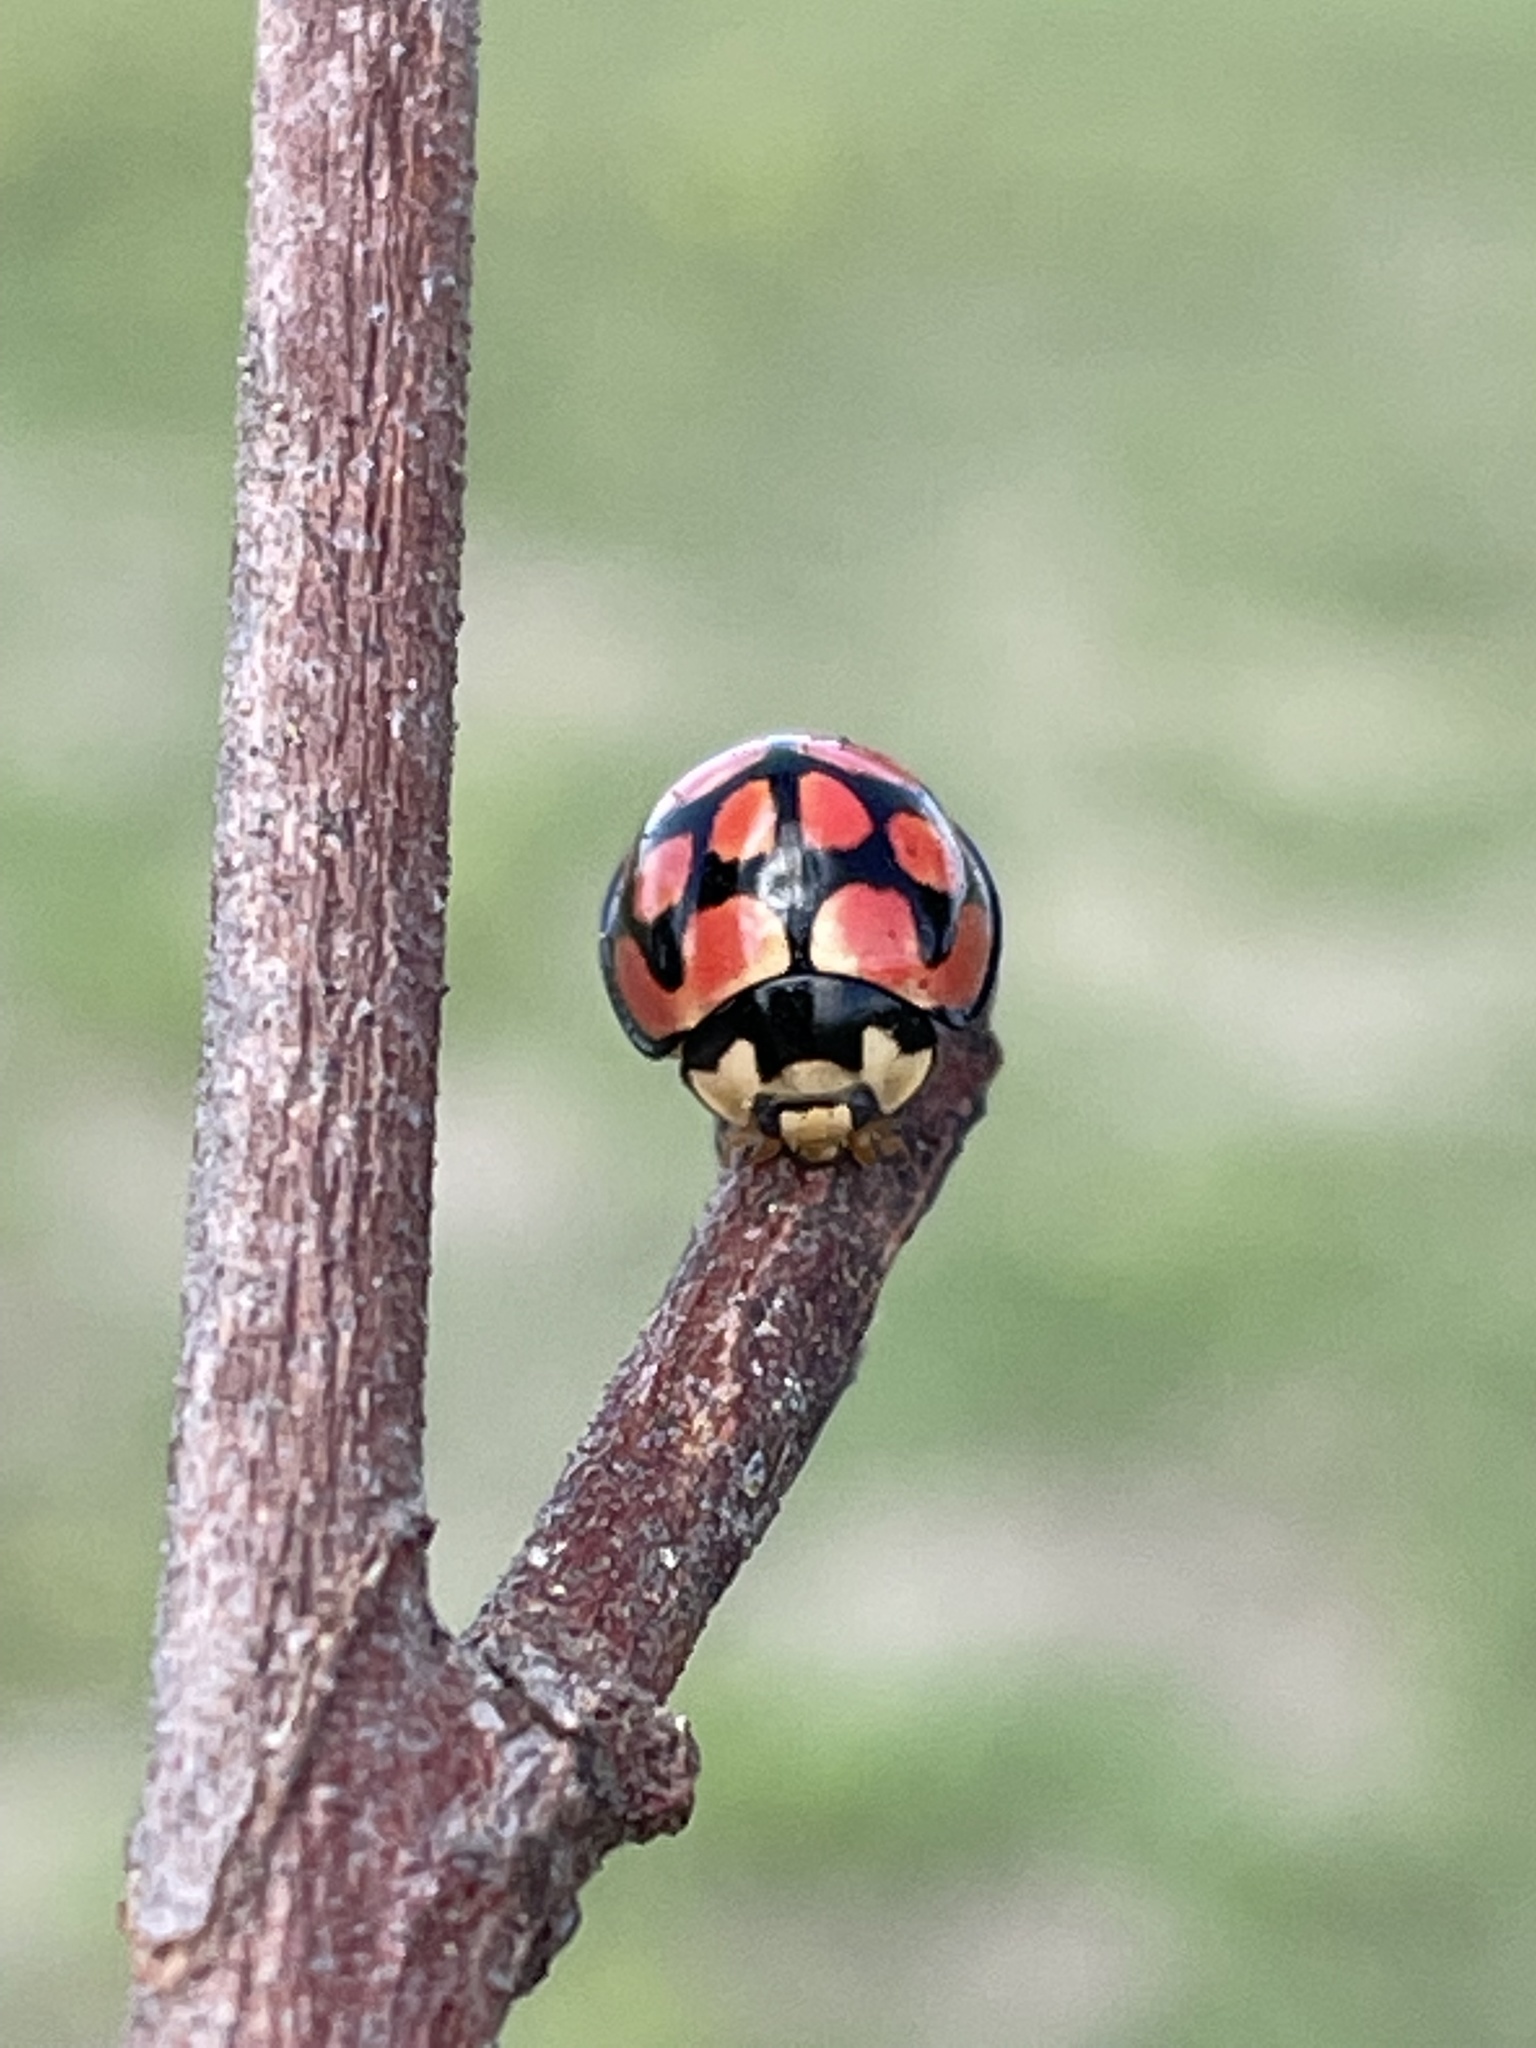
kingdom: Animalia
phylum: Arthropoda
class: Insecta
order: Coleoptera
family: Coccinellidae
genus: Cheilomenes
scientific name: Cheilomenes lunata
